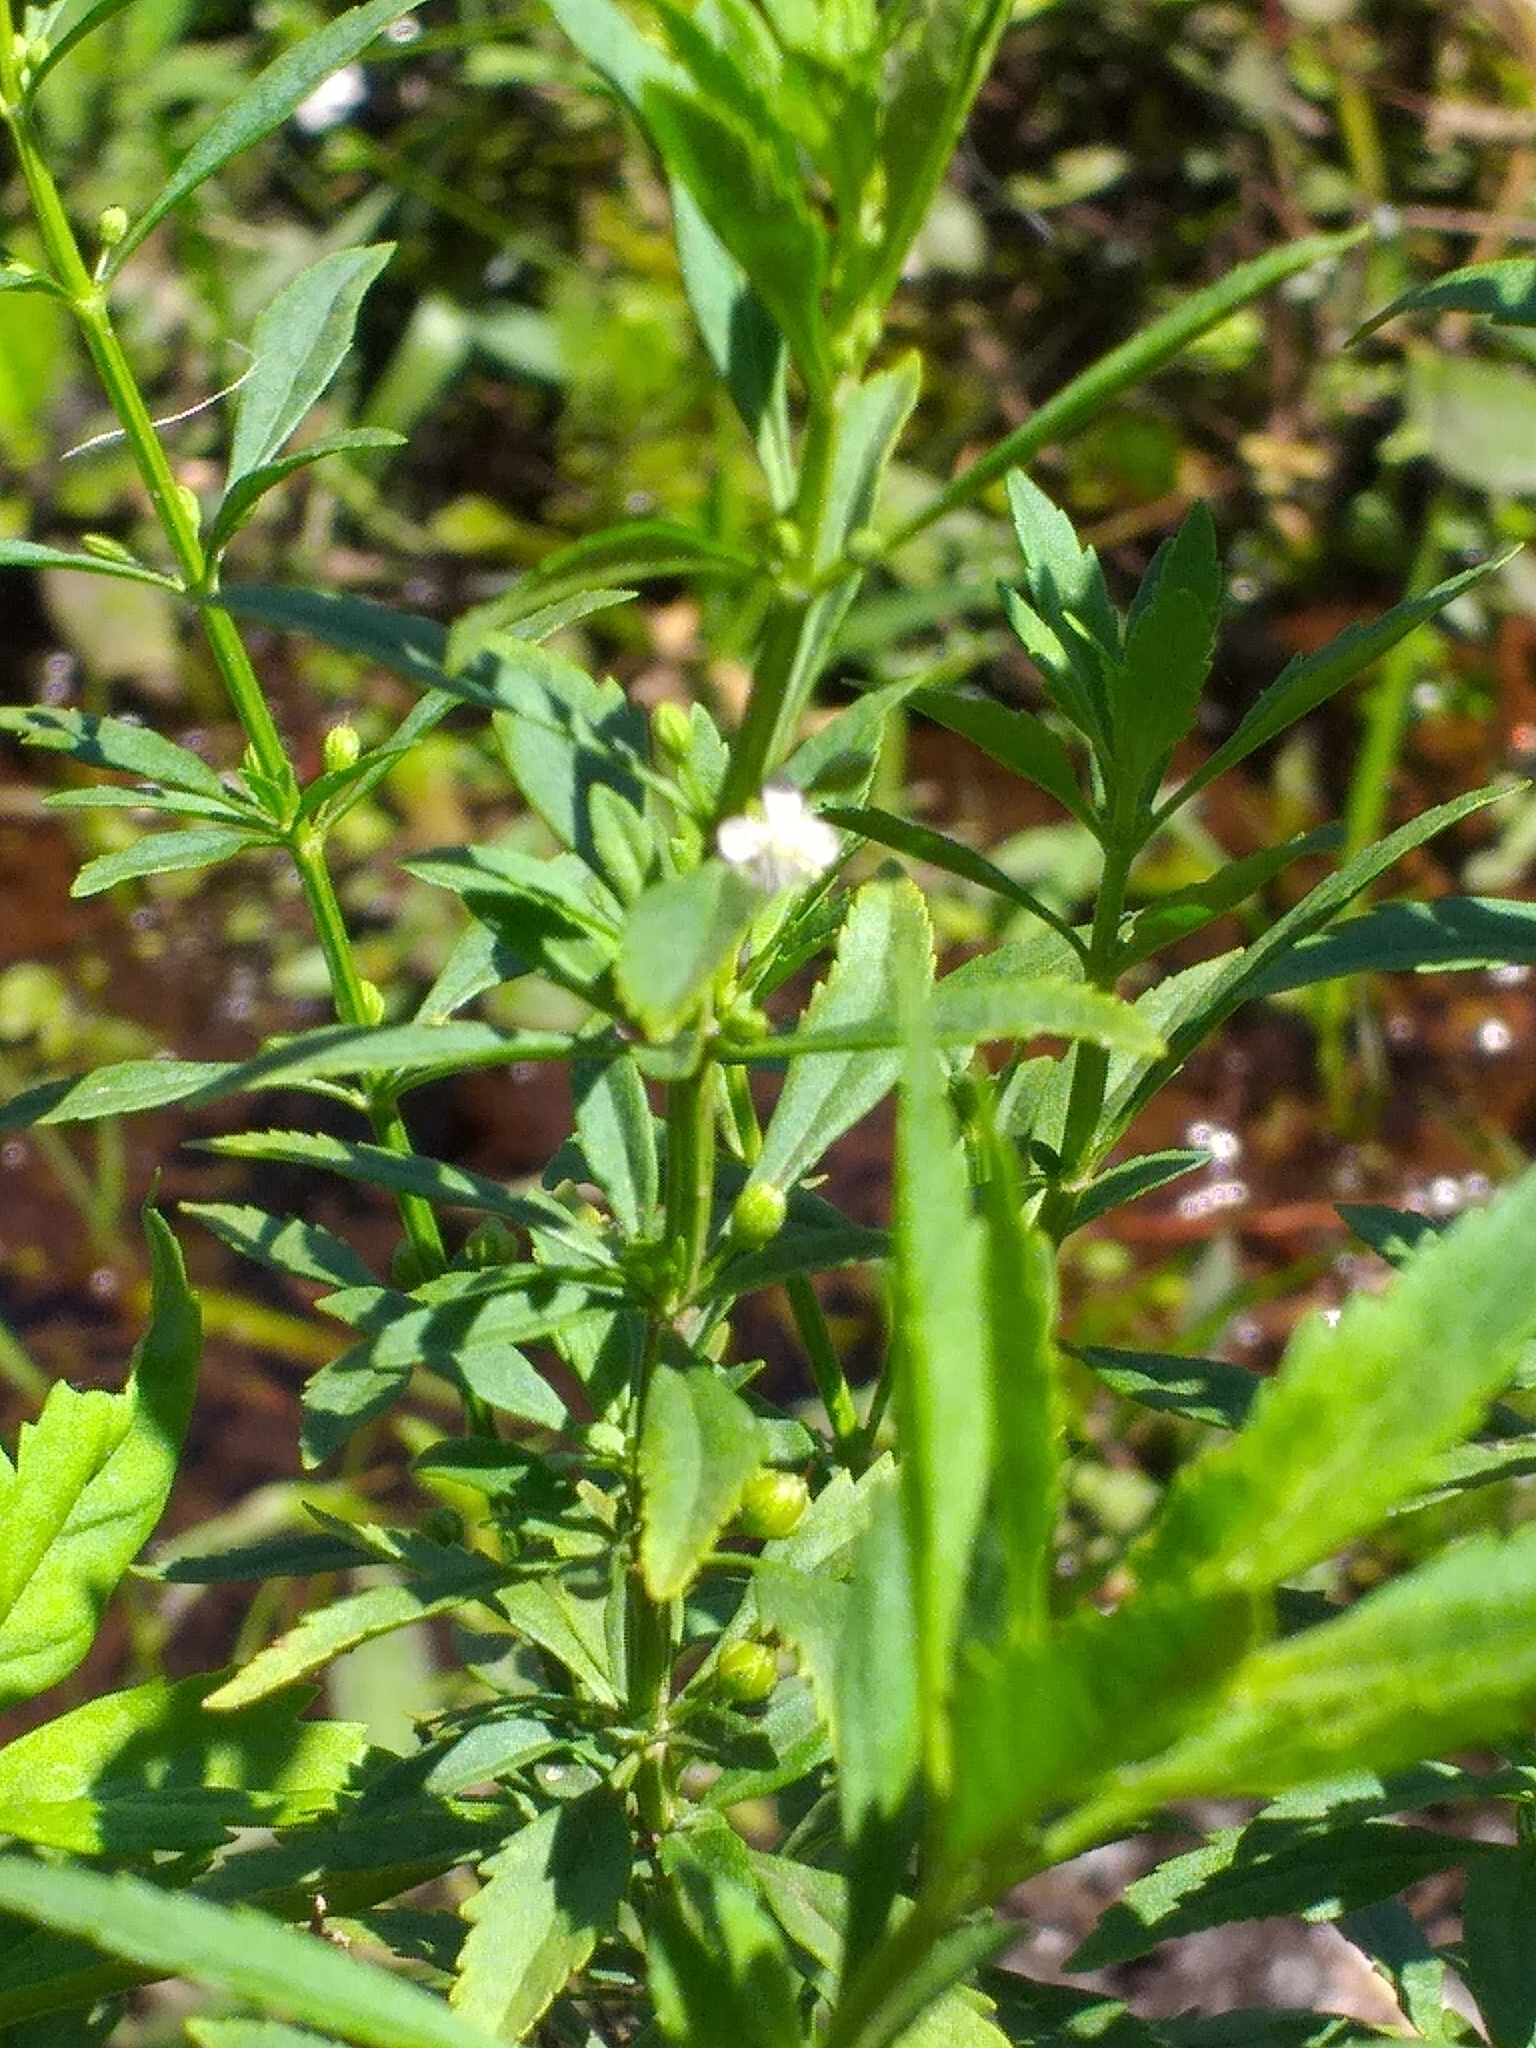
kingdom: Plantae
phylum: Tracheophyta
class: Magnoliopsida
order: Lamiales
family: Plantaginaceae
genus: Scoparia
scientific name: Scoparia dulcis
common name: Scoparia-weed
